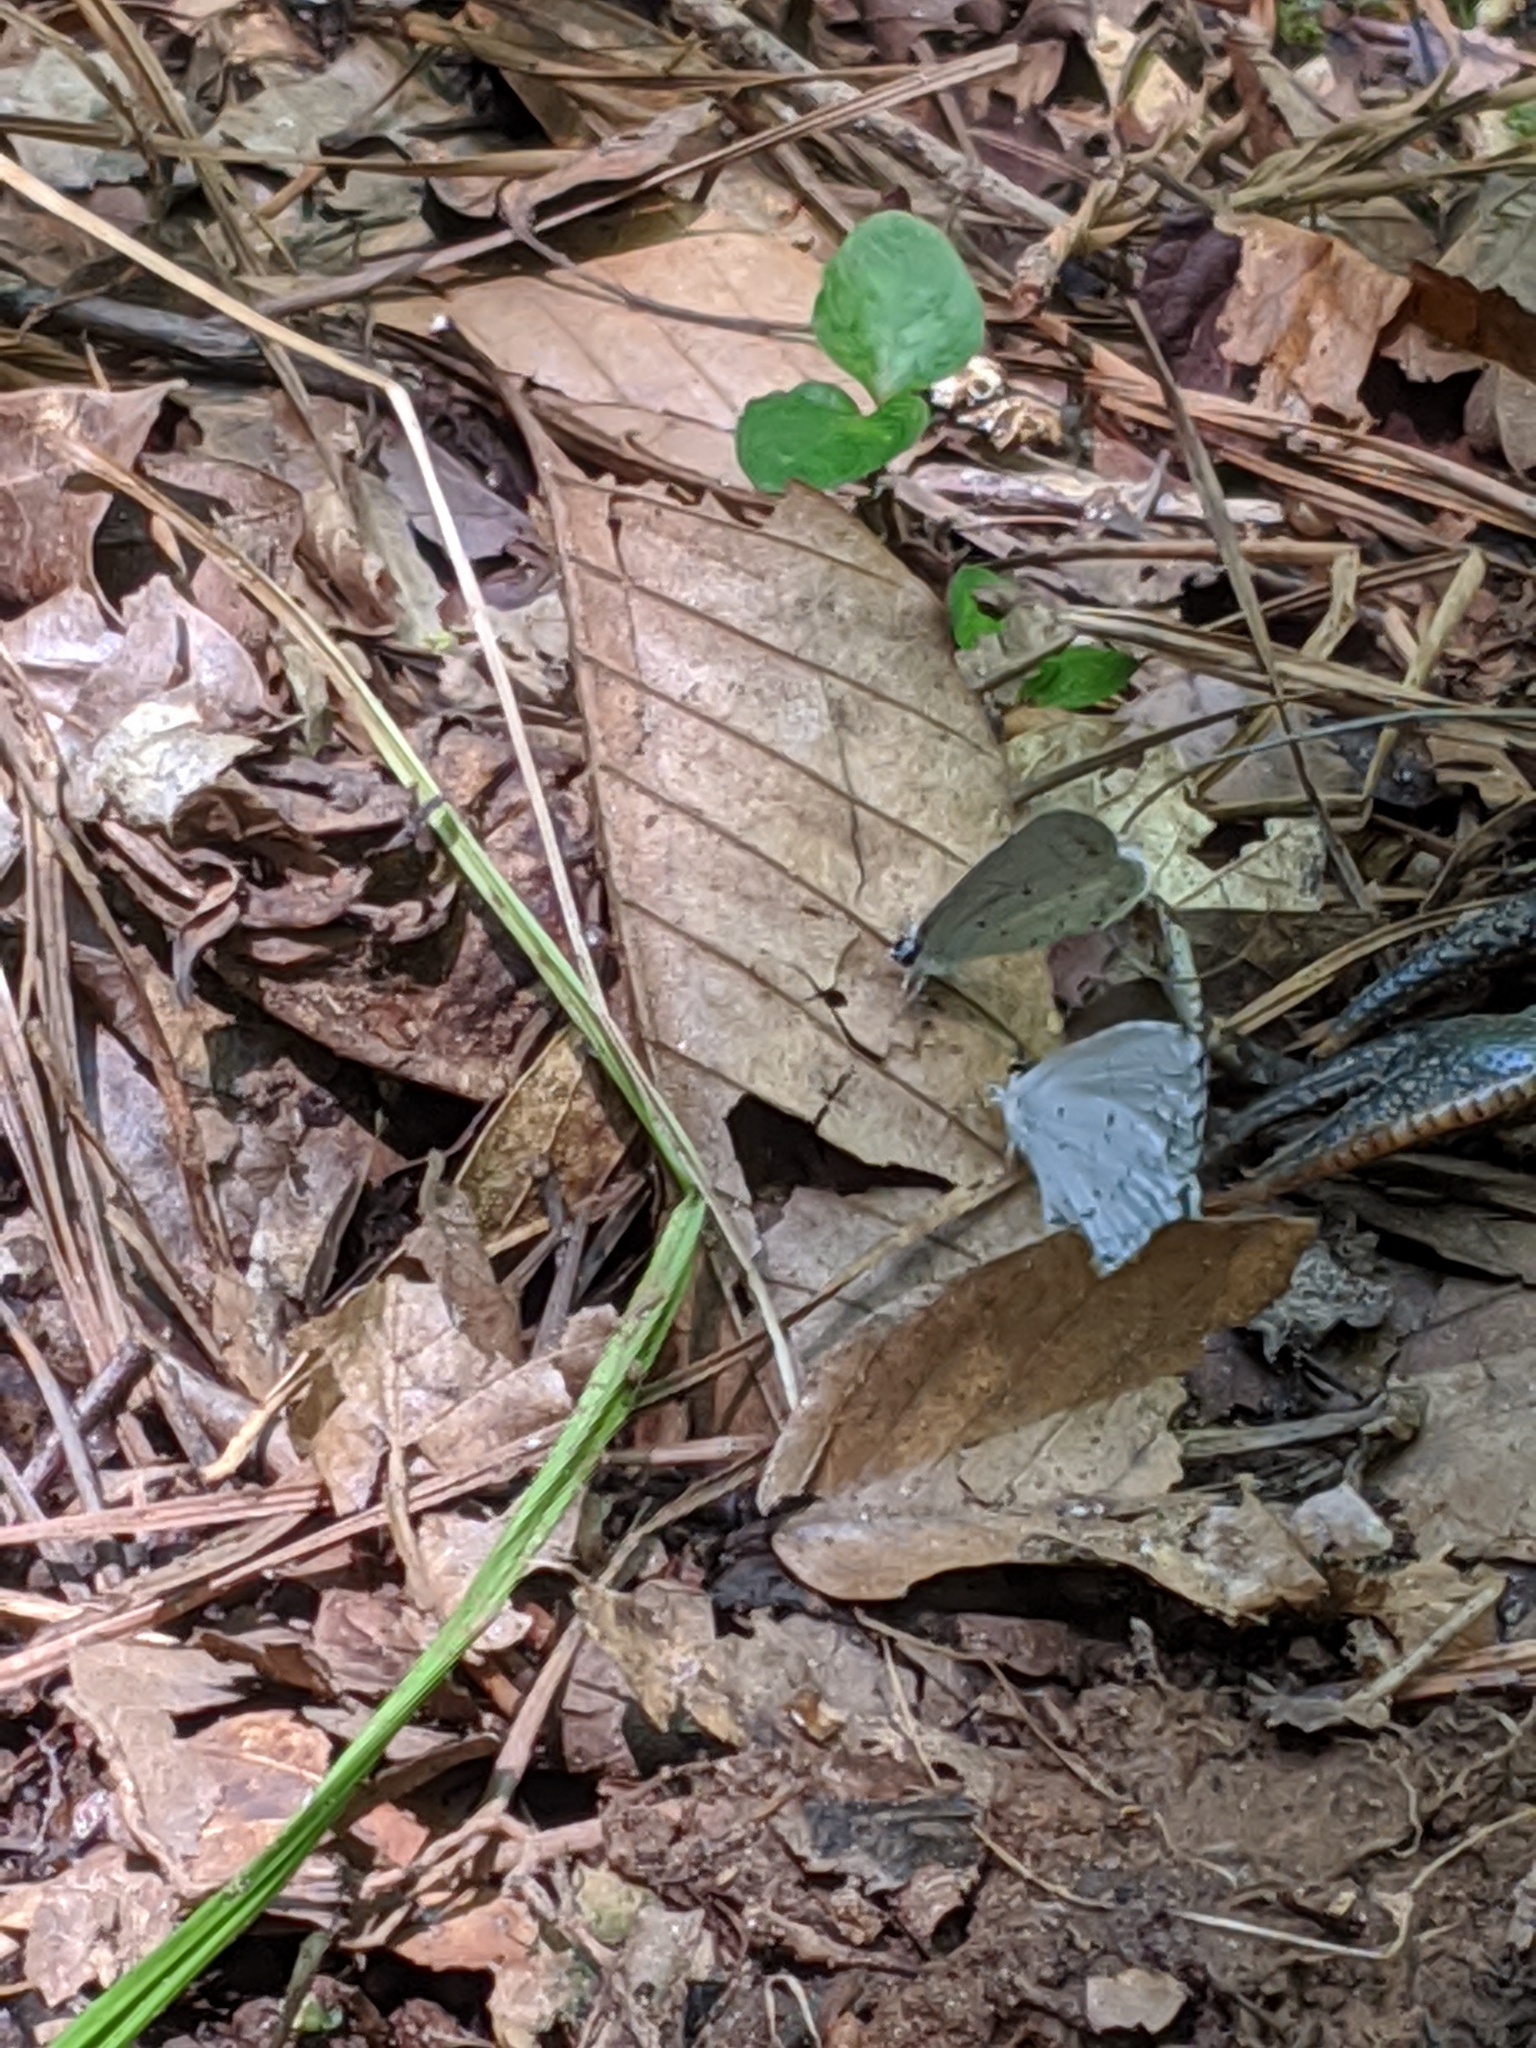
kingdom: Animalia
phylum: Arthropoda
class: Insecta
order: Lepidoptera
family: Lycaenidae
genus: Cyaniris
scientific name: Cyaniris neglecta
